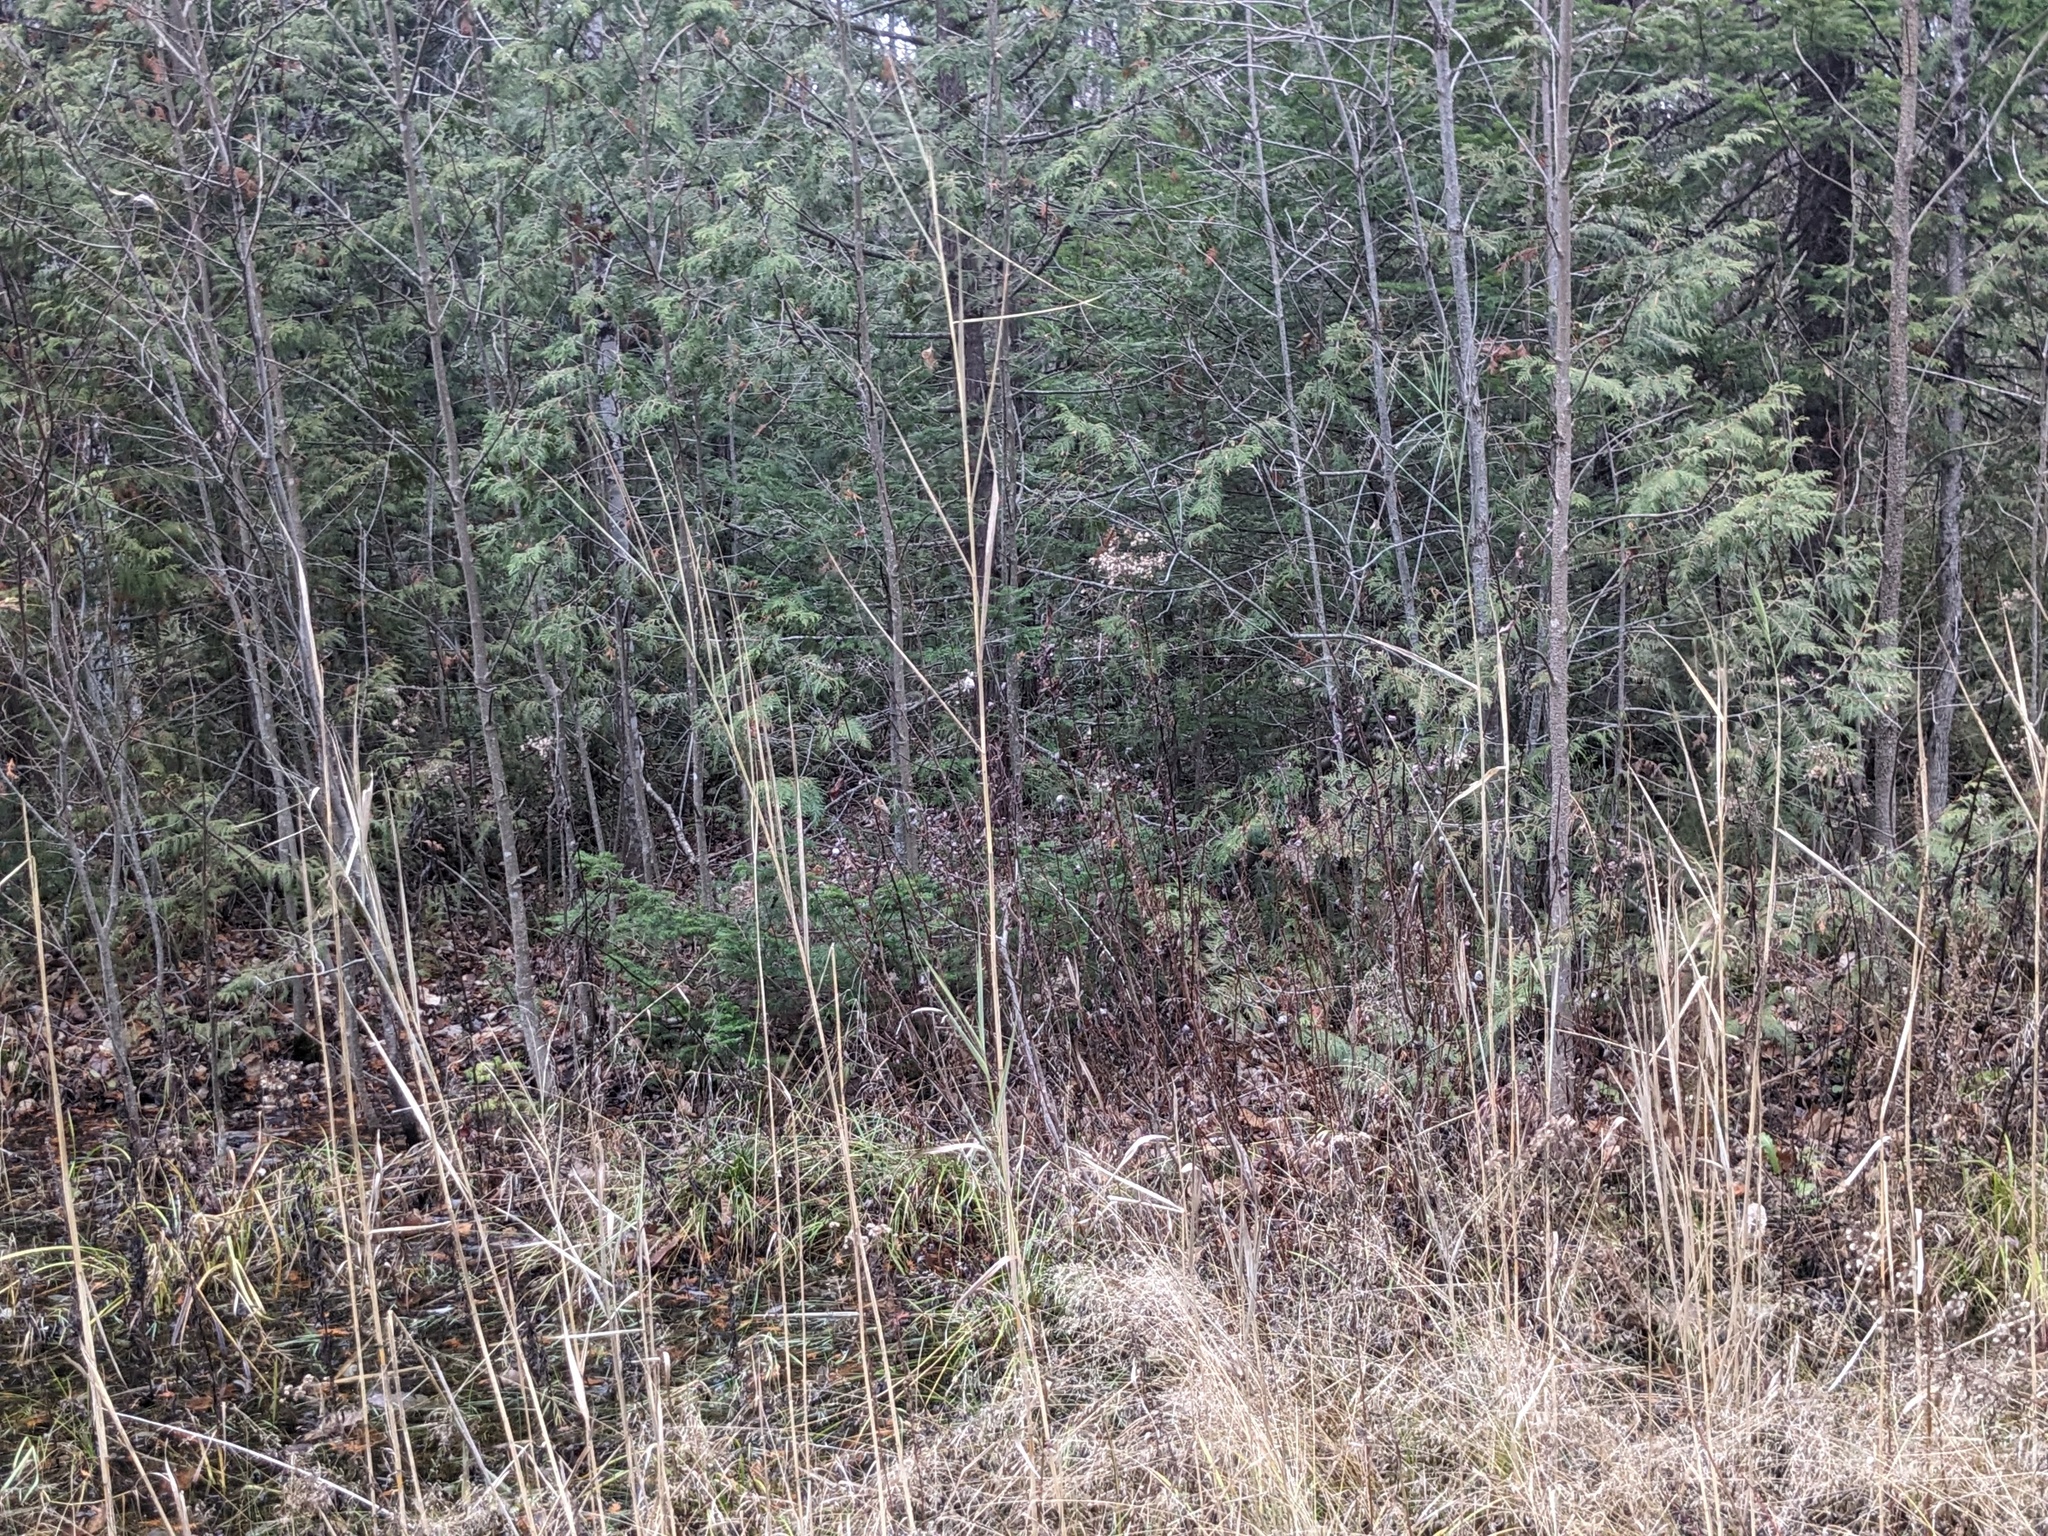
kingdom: Plantae
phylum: Tracheophyta
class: Liliopsida
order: Poales
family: Poaceae
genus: Phragmites
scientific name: Phragmites australis
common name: Common reed
